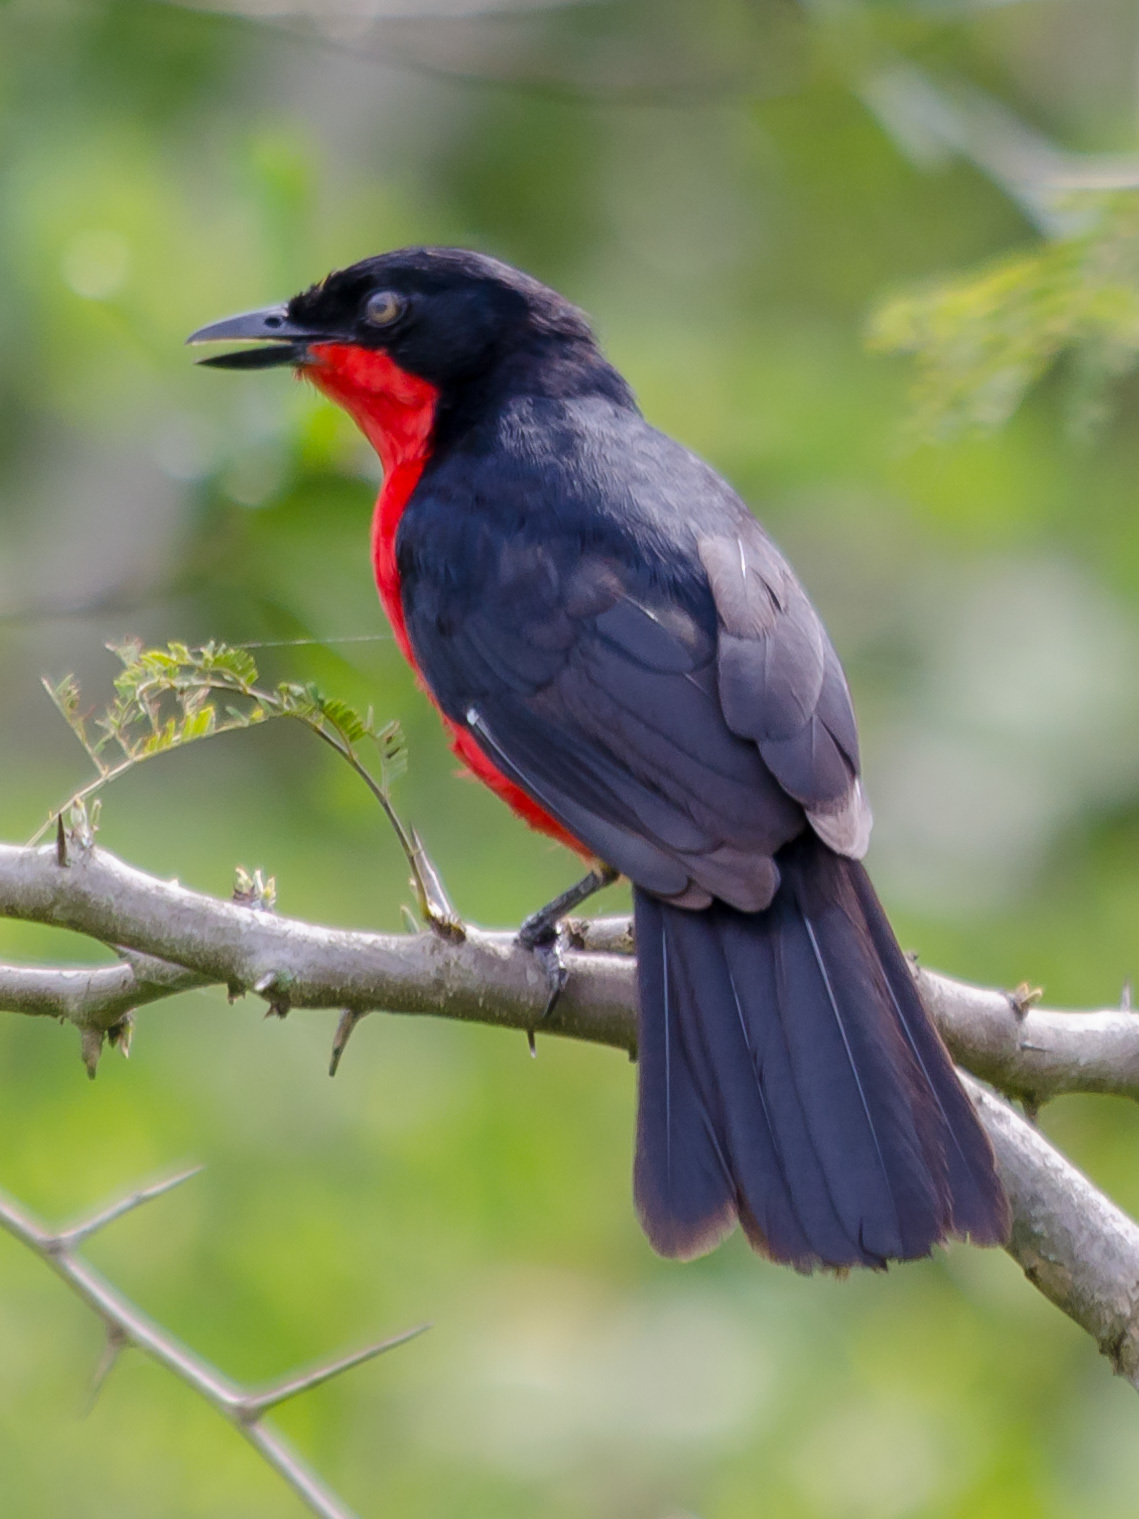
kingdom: Animalia
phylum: Chordata
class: Aves
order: Passeriformes
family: Malaconotidae
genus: Laniarius
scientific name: Laniarius erythrogaster
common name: Black-headed gonolek
